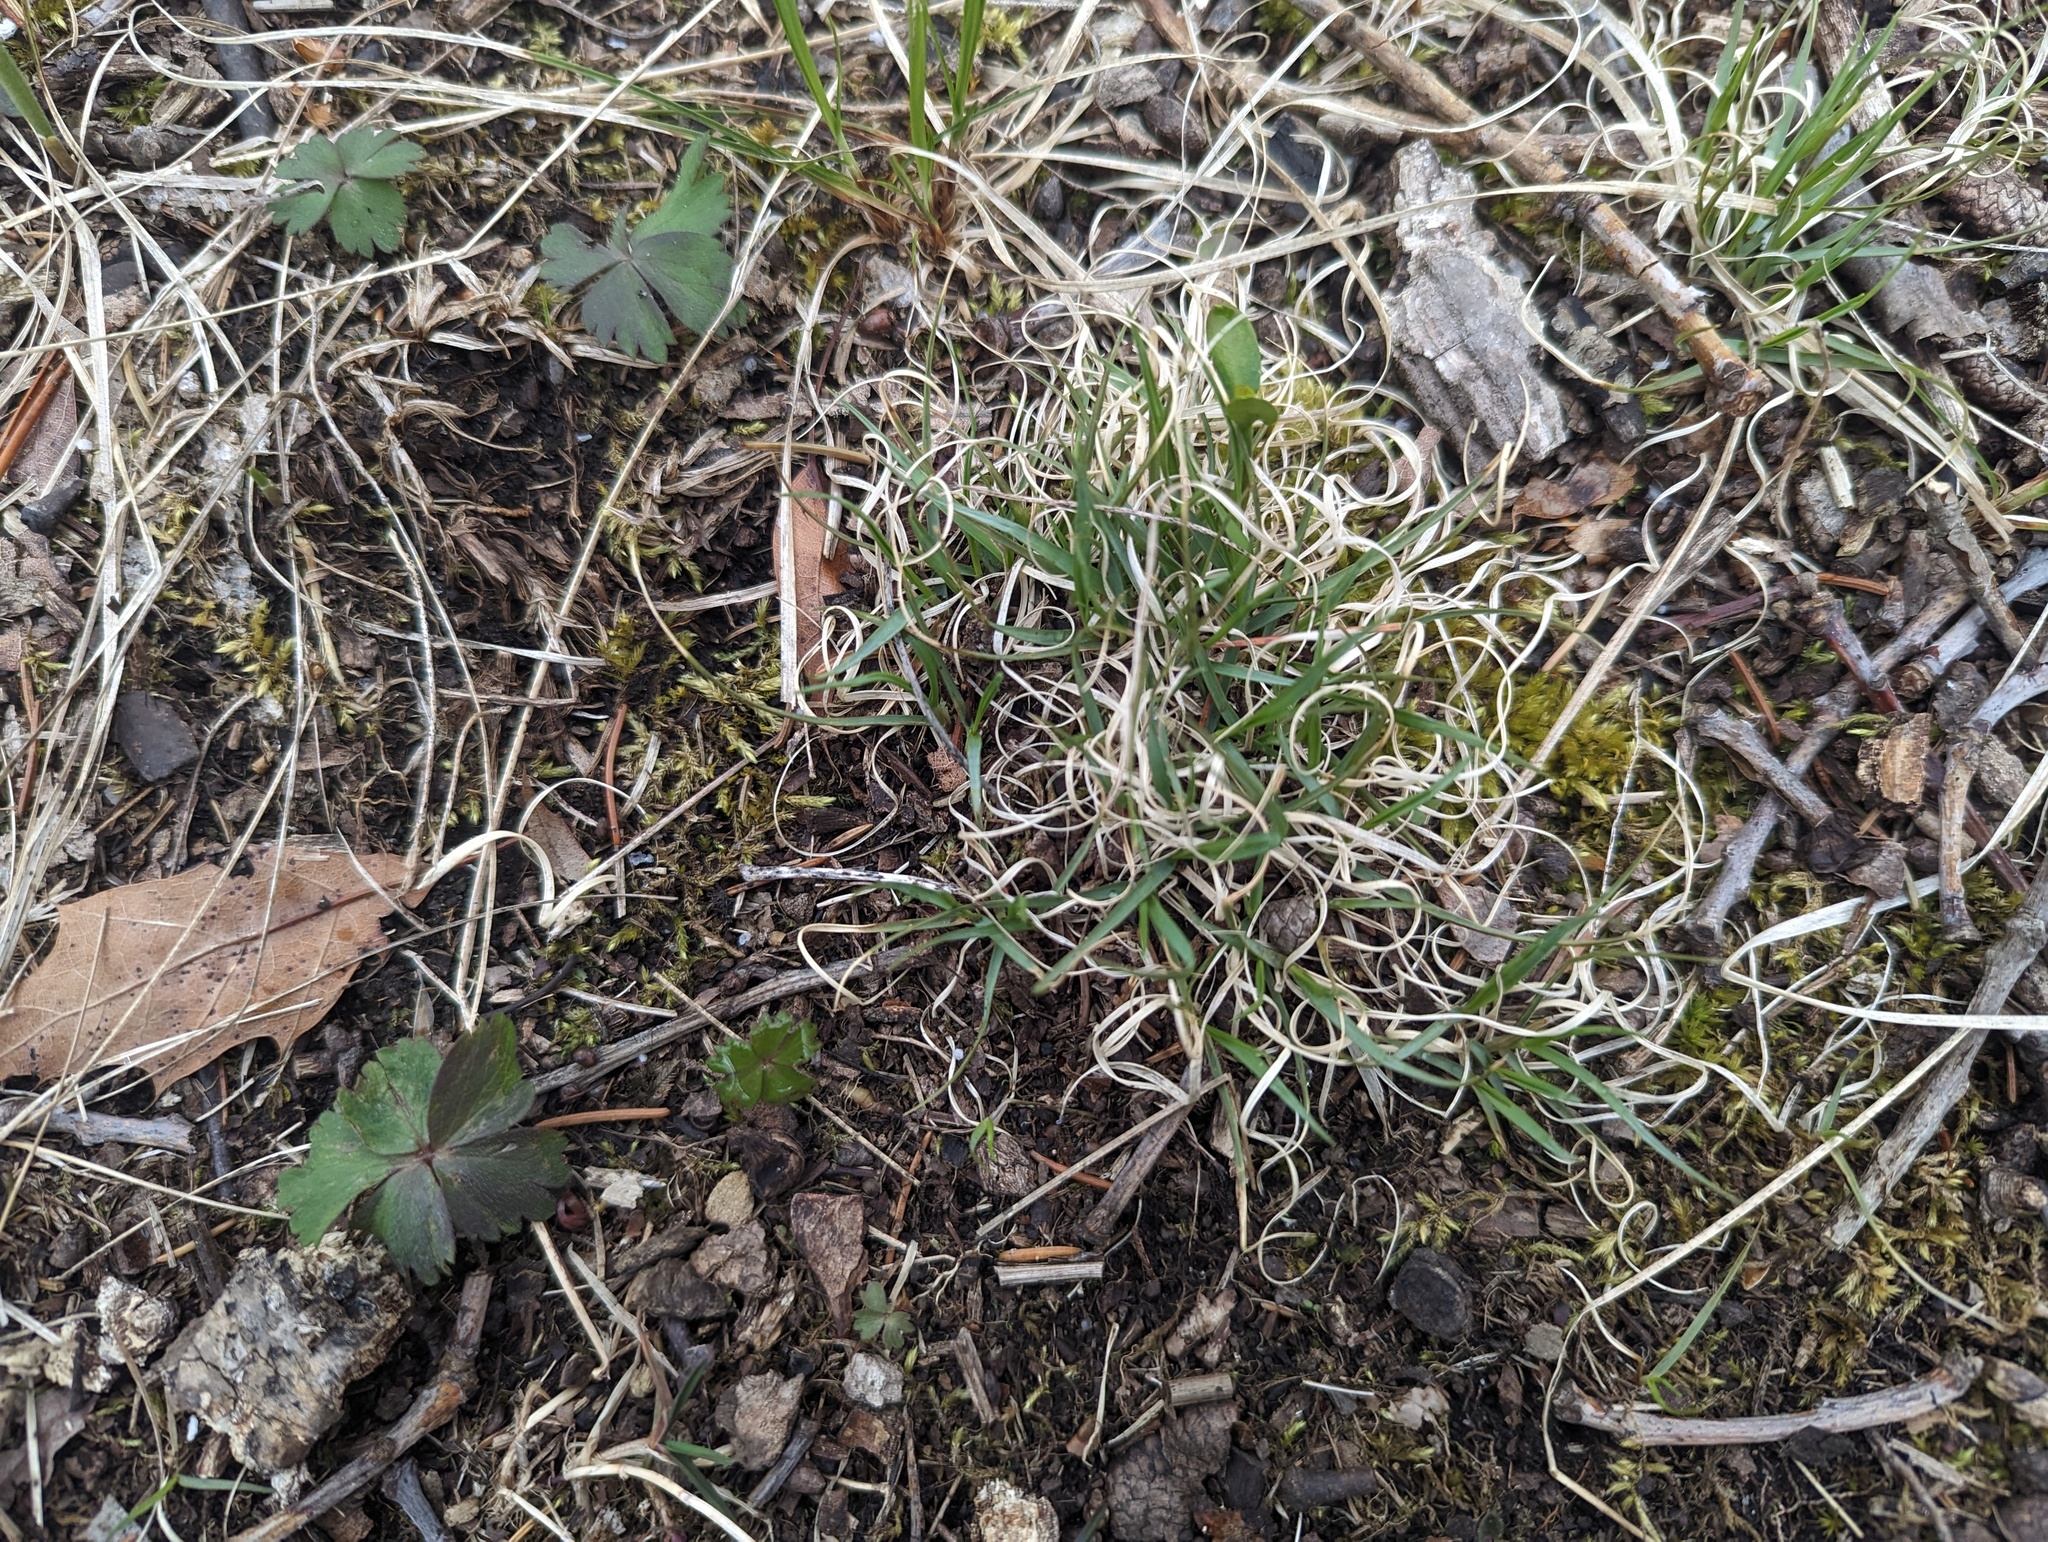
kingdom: Plantae
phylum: Tracheophyta
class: Liliopsida
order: Poales
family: Poaceae
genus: Danthonia
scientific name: Danthonia spicata
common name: Common wild oatgrass
